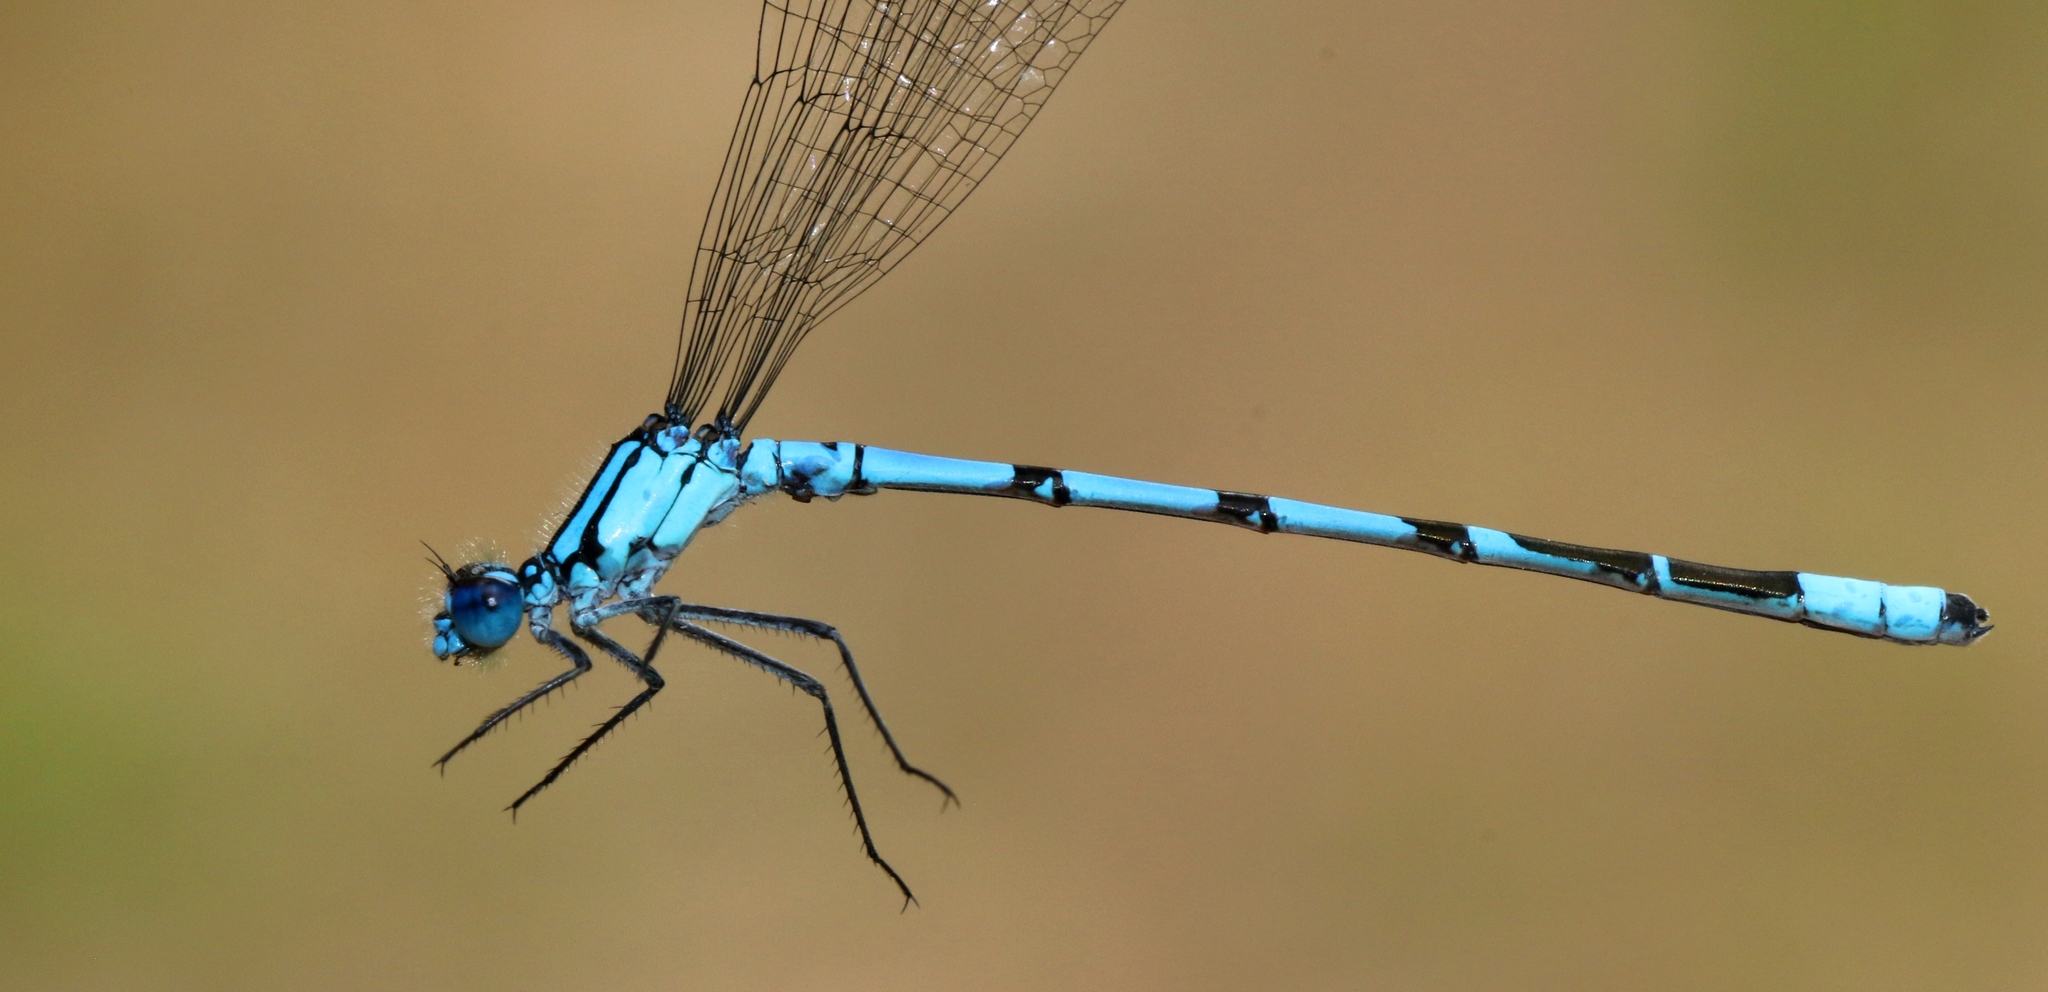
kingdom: Animalia
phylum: Arthropoda
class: Insecta
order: Odonata
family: Coenagrionidae
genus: Enallagma
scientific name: Enallagma boreale
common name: Boreal bluet
